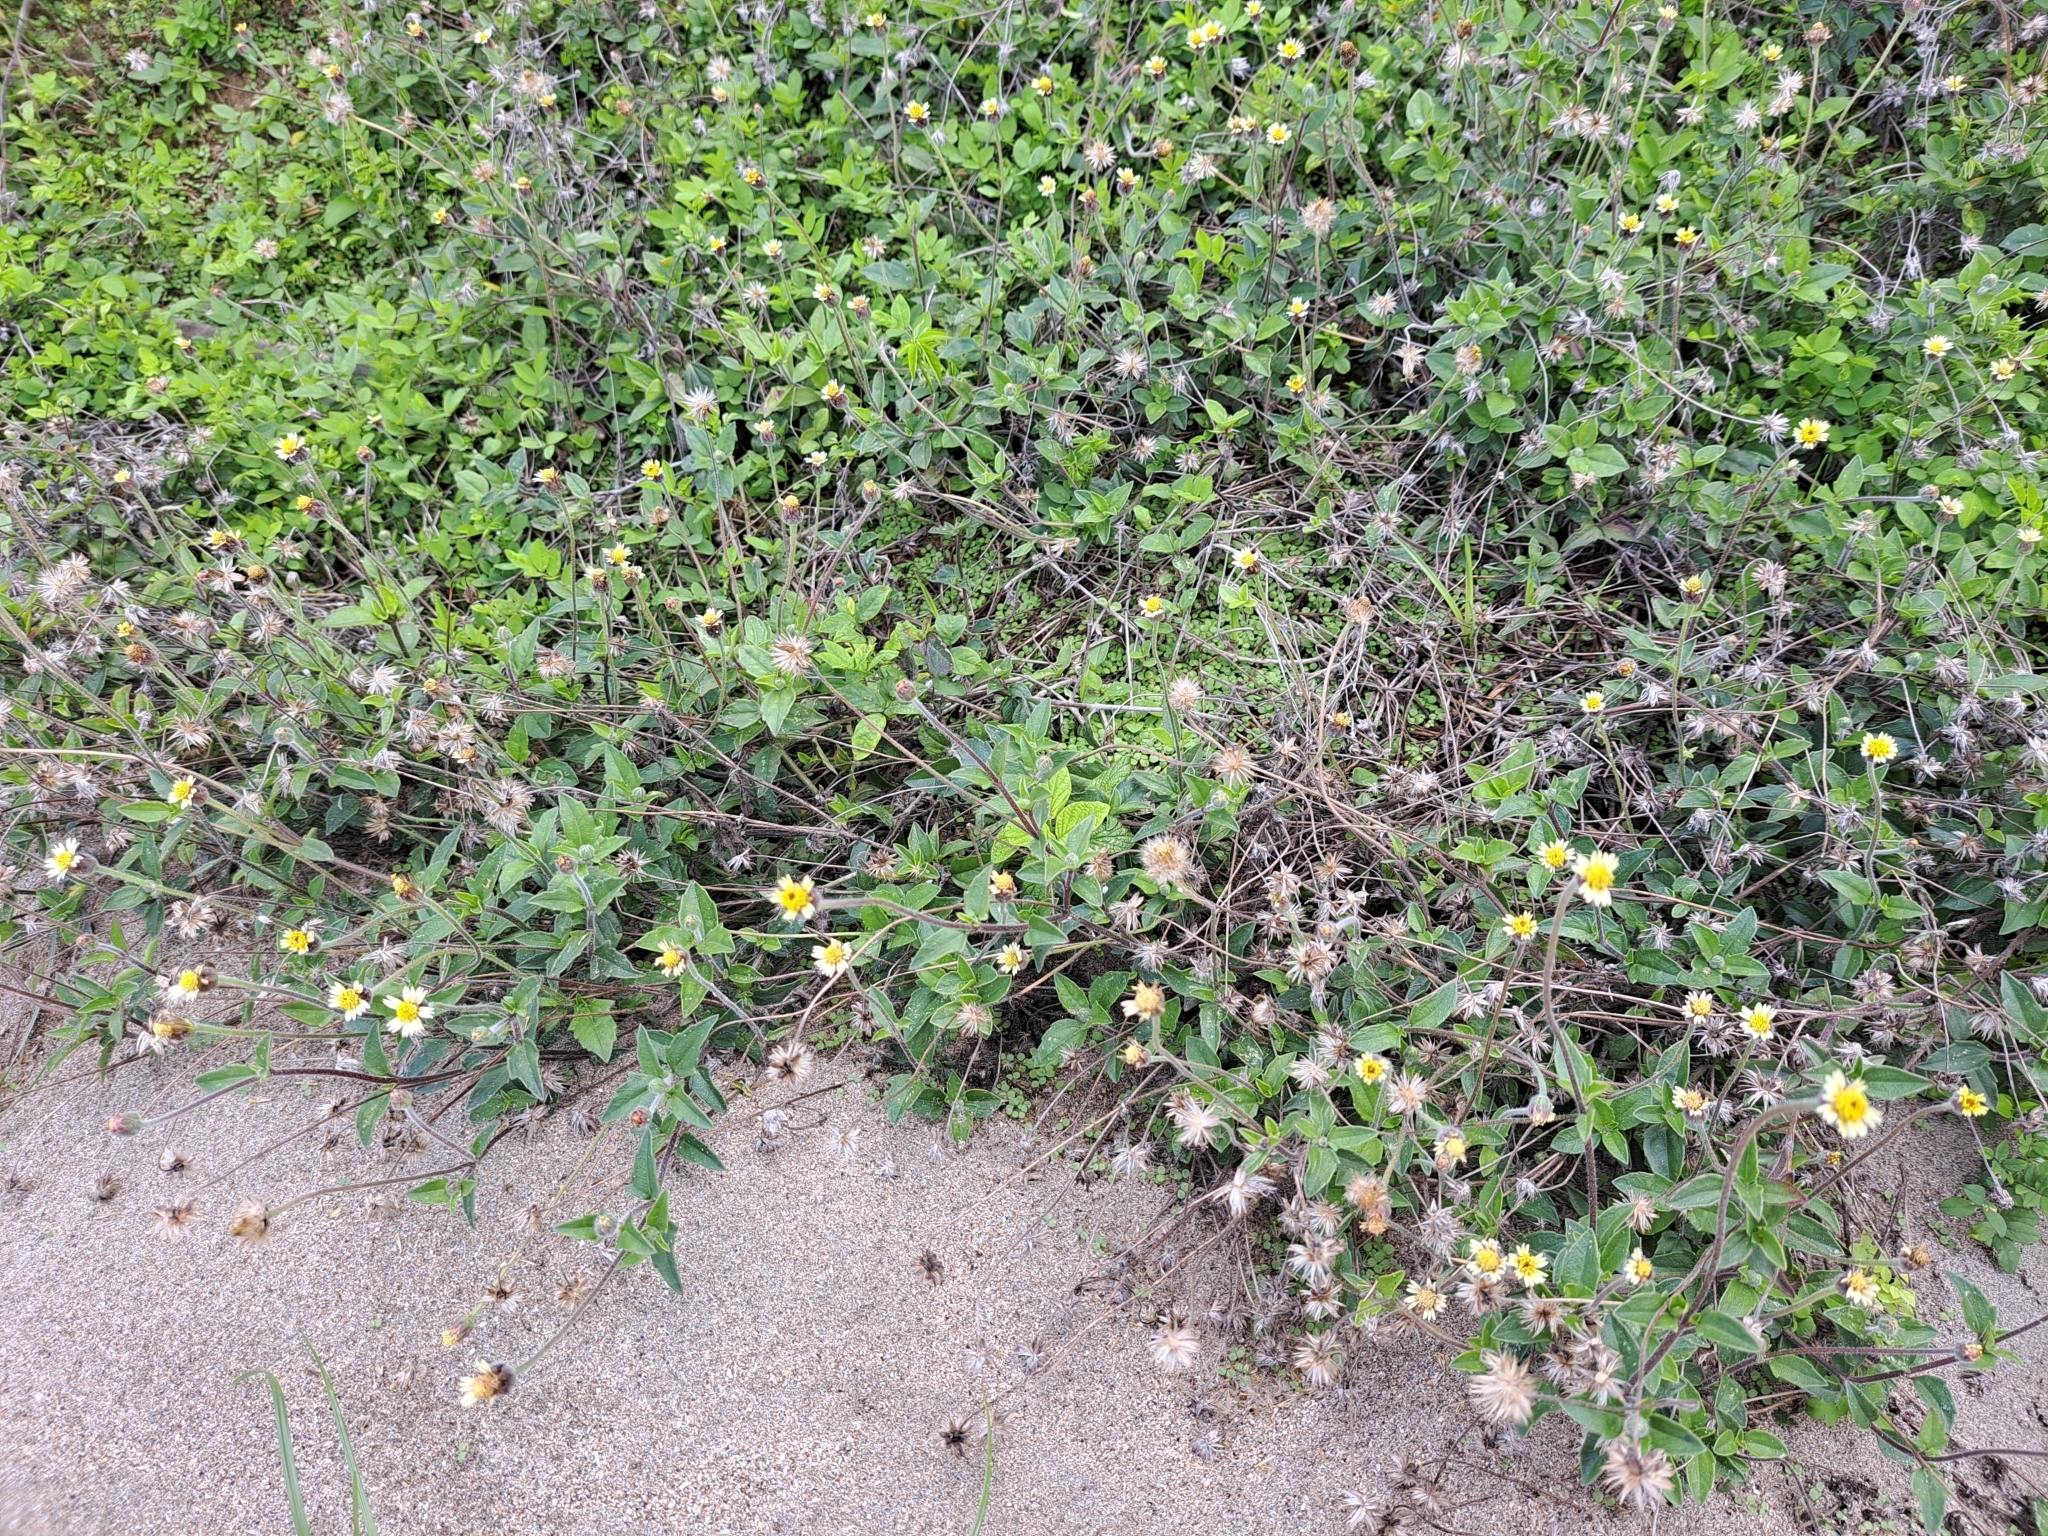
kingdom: Plantae
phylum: Tracheophyta
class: Magnoliopsida
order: Asterales
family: Asteraceae
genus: Tridax
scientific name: Tridax procumbens
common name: Coatbuttons
